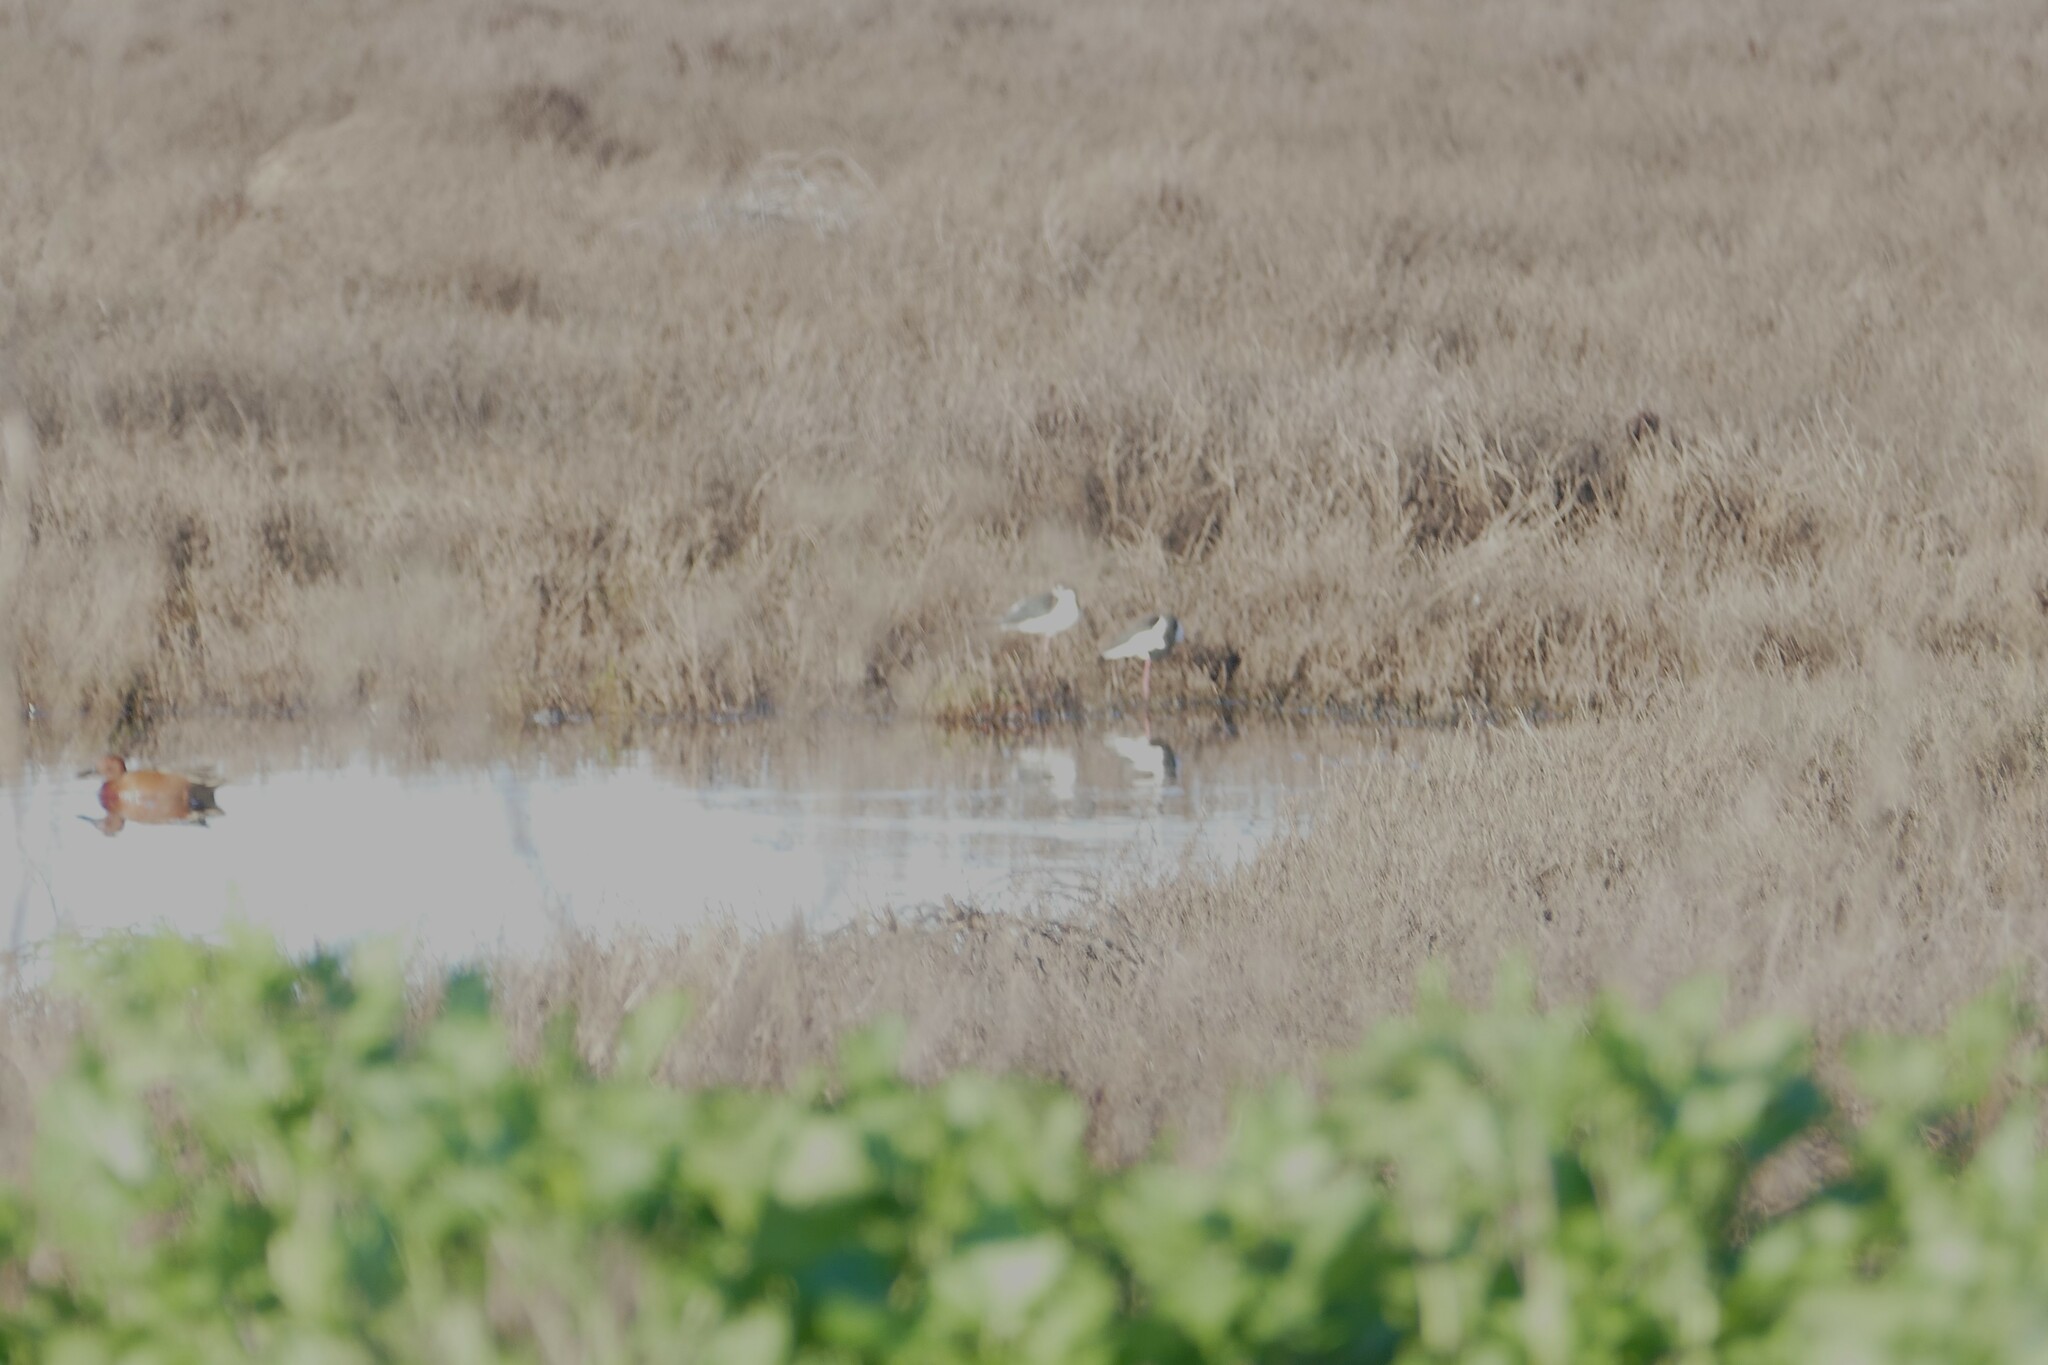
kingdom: Animalia
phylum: Chordata
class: Aves
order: Anseriformes
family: Anatidae
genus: Spatula
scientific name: Spatula cyanoptera
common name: Cinnamon teal
